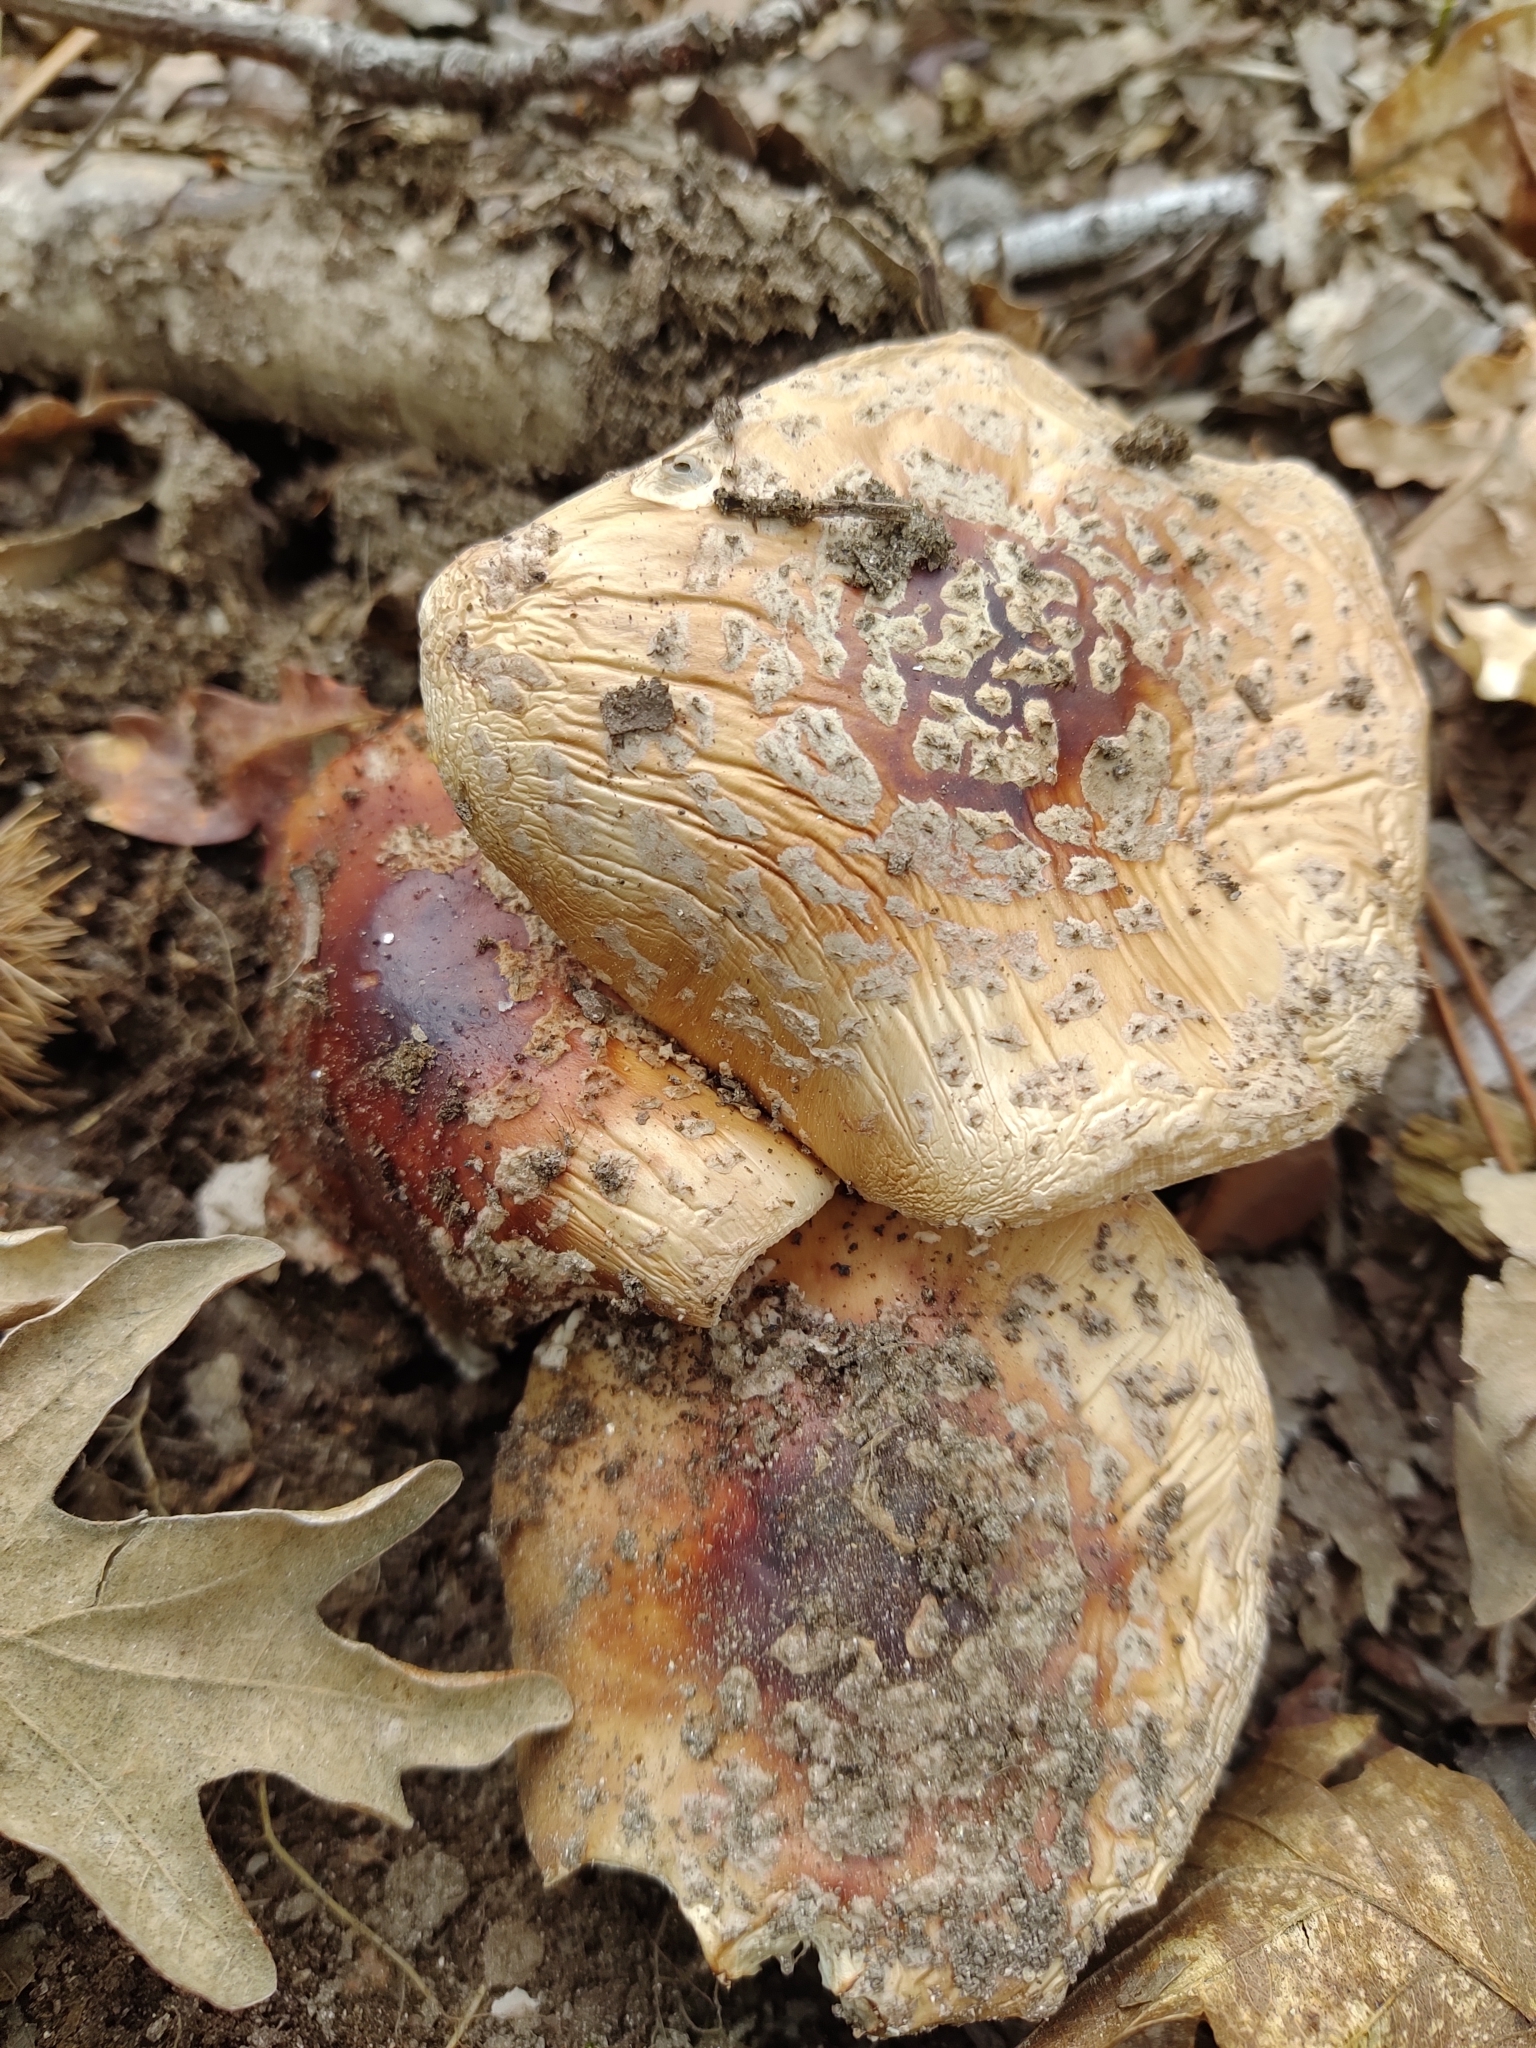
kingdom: Fungi
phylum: Basidiomycota
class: Agaricomycetes
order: Agaricales
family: Amanitaceae
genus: Amanita
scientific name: Amanita rubescens
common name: Blusher
